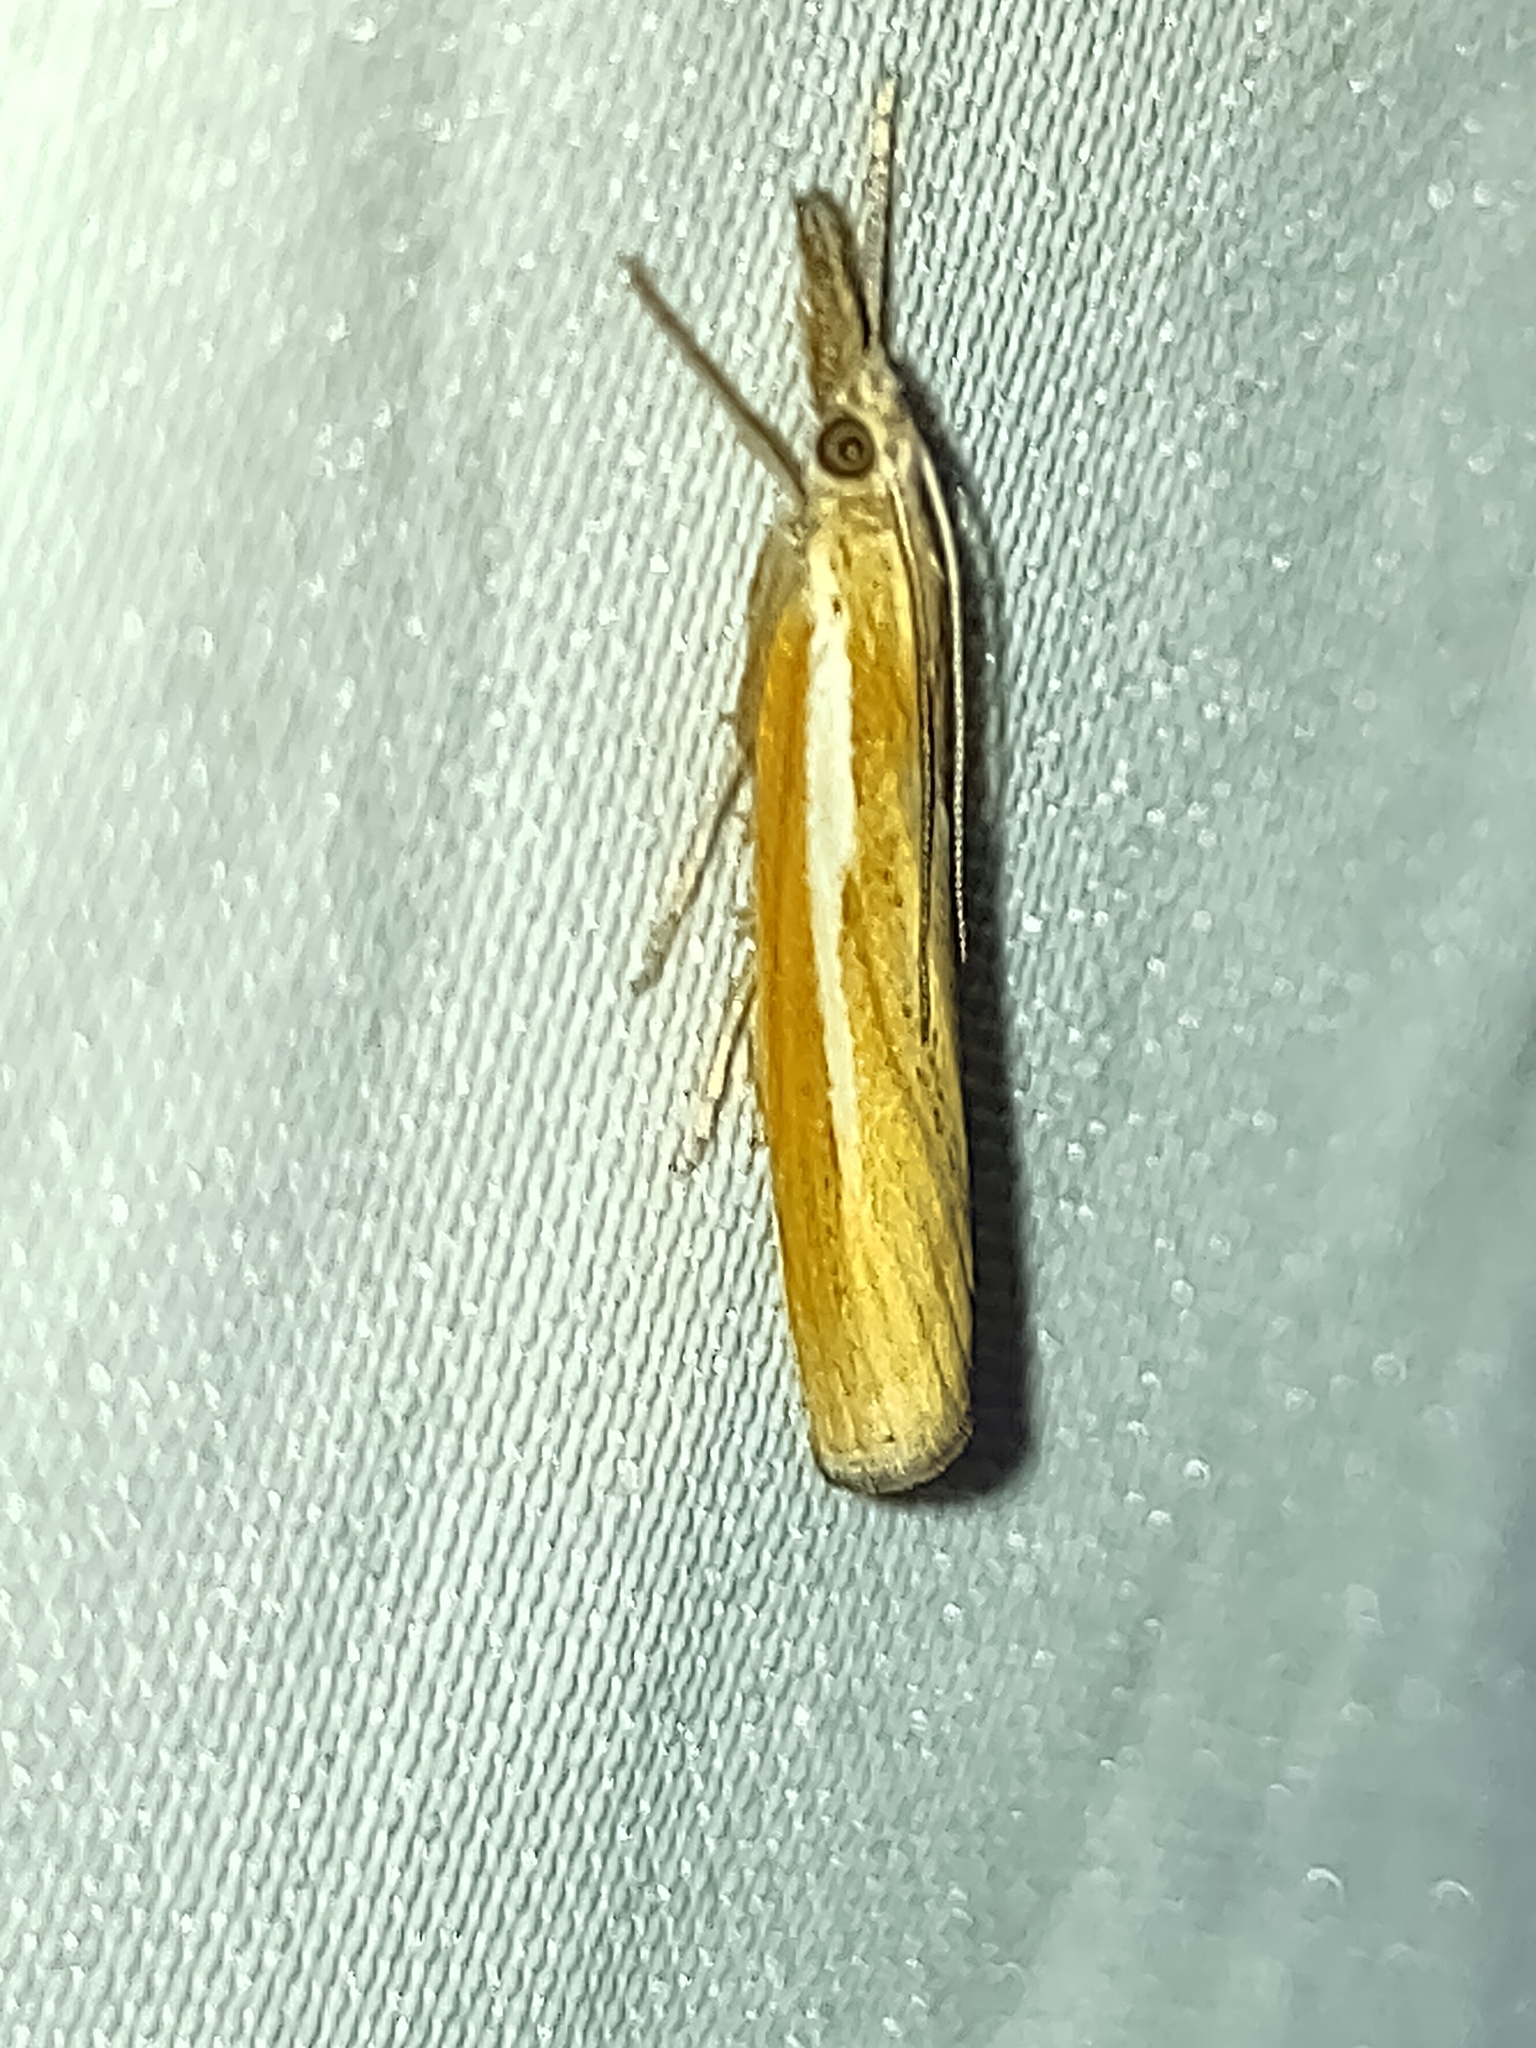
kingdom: Animalia
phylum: Arthropoda
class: Insecta
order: Lepidoptera
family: Crambidae
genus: Agriphila
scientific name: Agriphila tristellus
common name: Common grass-veneer
